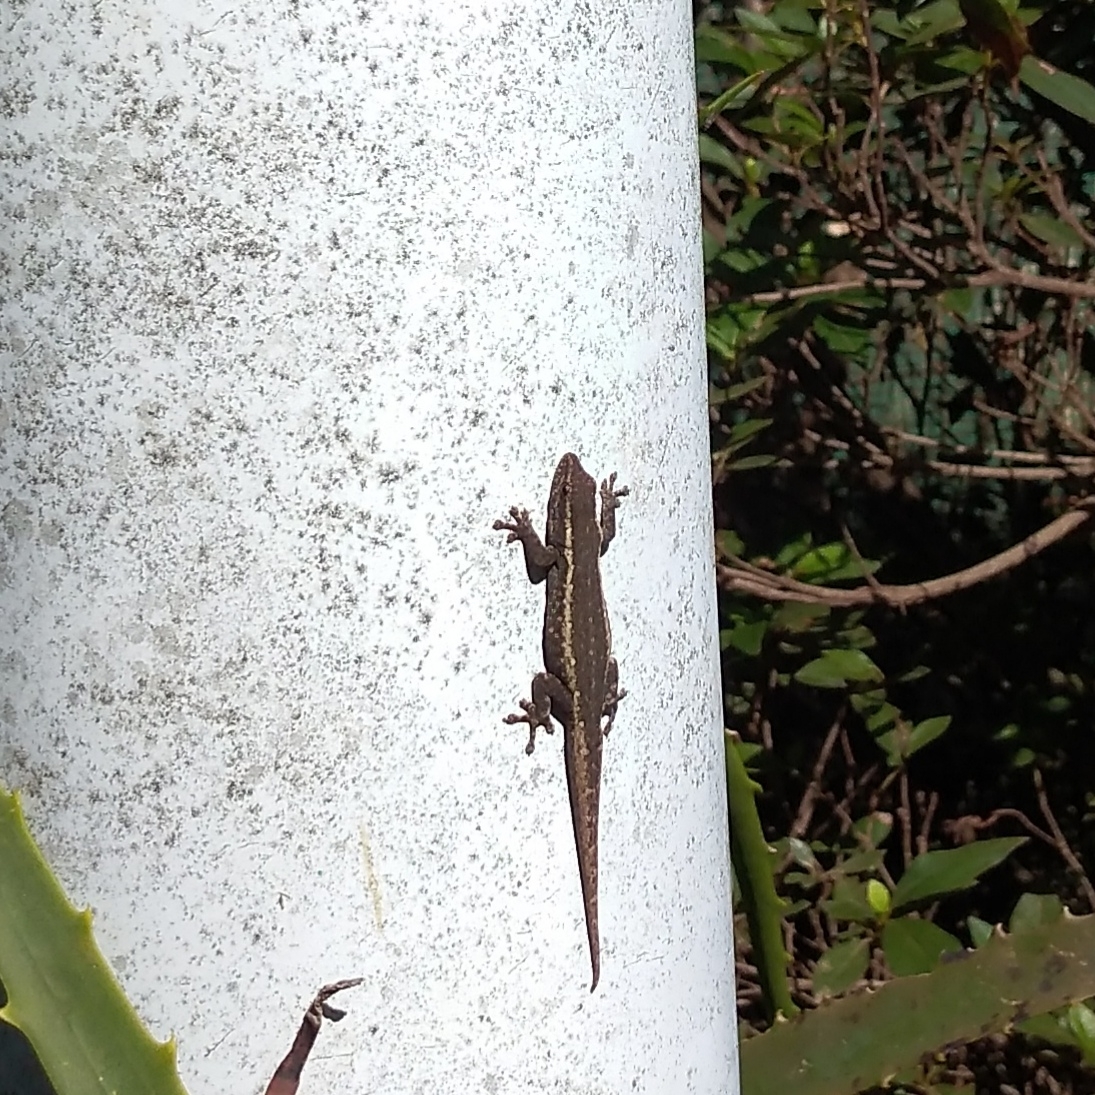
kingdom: Animalia
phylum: Chordata
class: Squamata
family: Gekkonidae
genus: Lygodactylus
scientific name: Lygodactylus capensis
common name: Cape dwarf gecko
